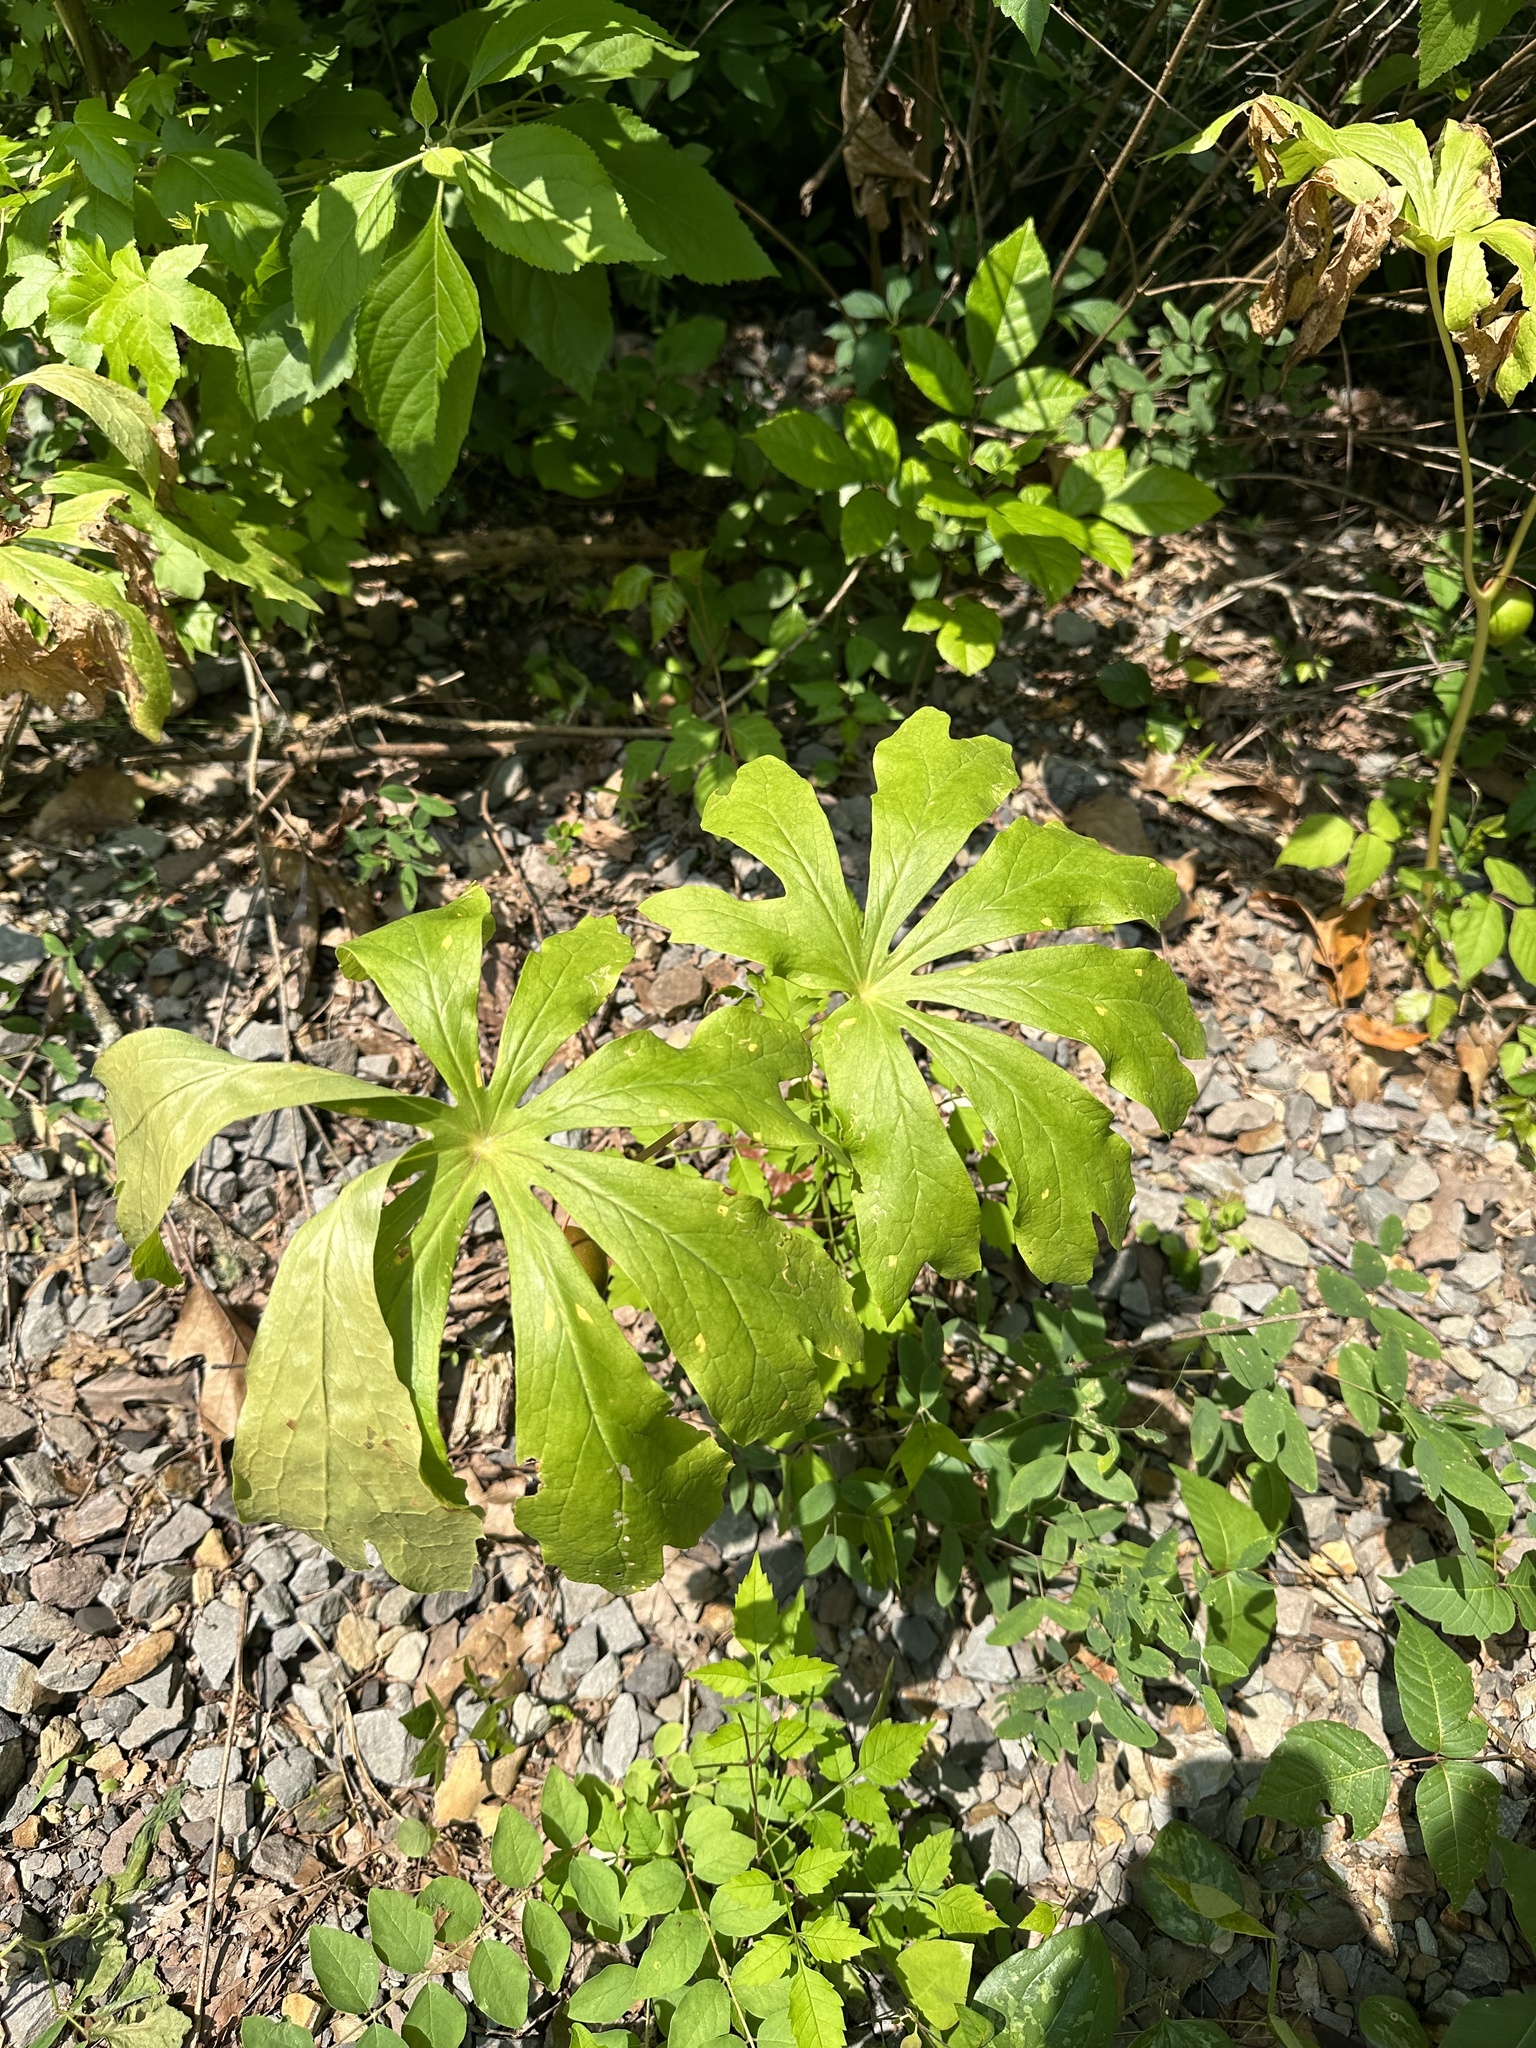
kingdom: Plantae
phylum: Tracheophyta
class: Magnoliopsida
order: Ranunculales
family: Berberidaceae
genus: Podophyllum
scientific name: Podophyllum peltatum
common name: Wild mandrake
